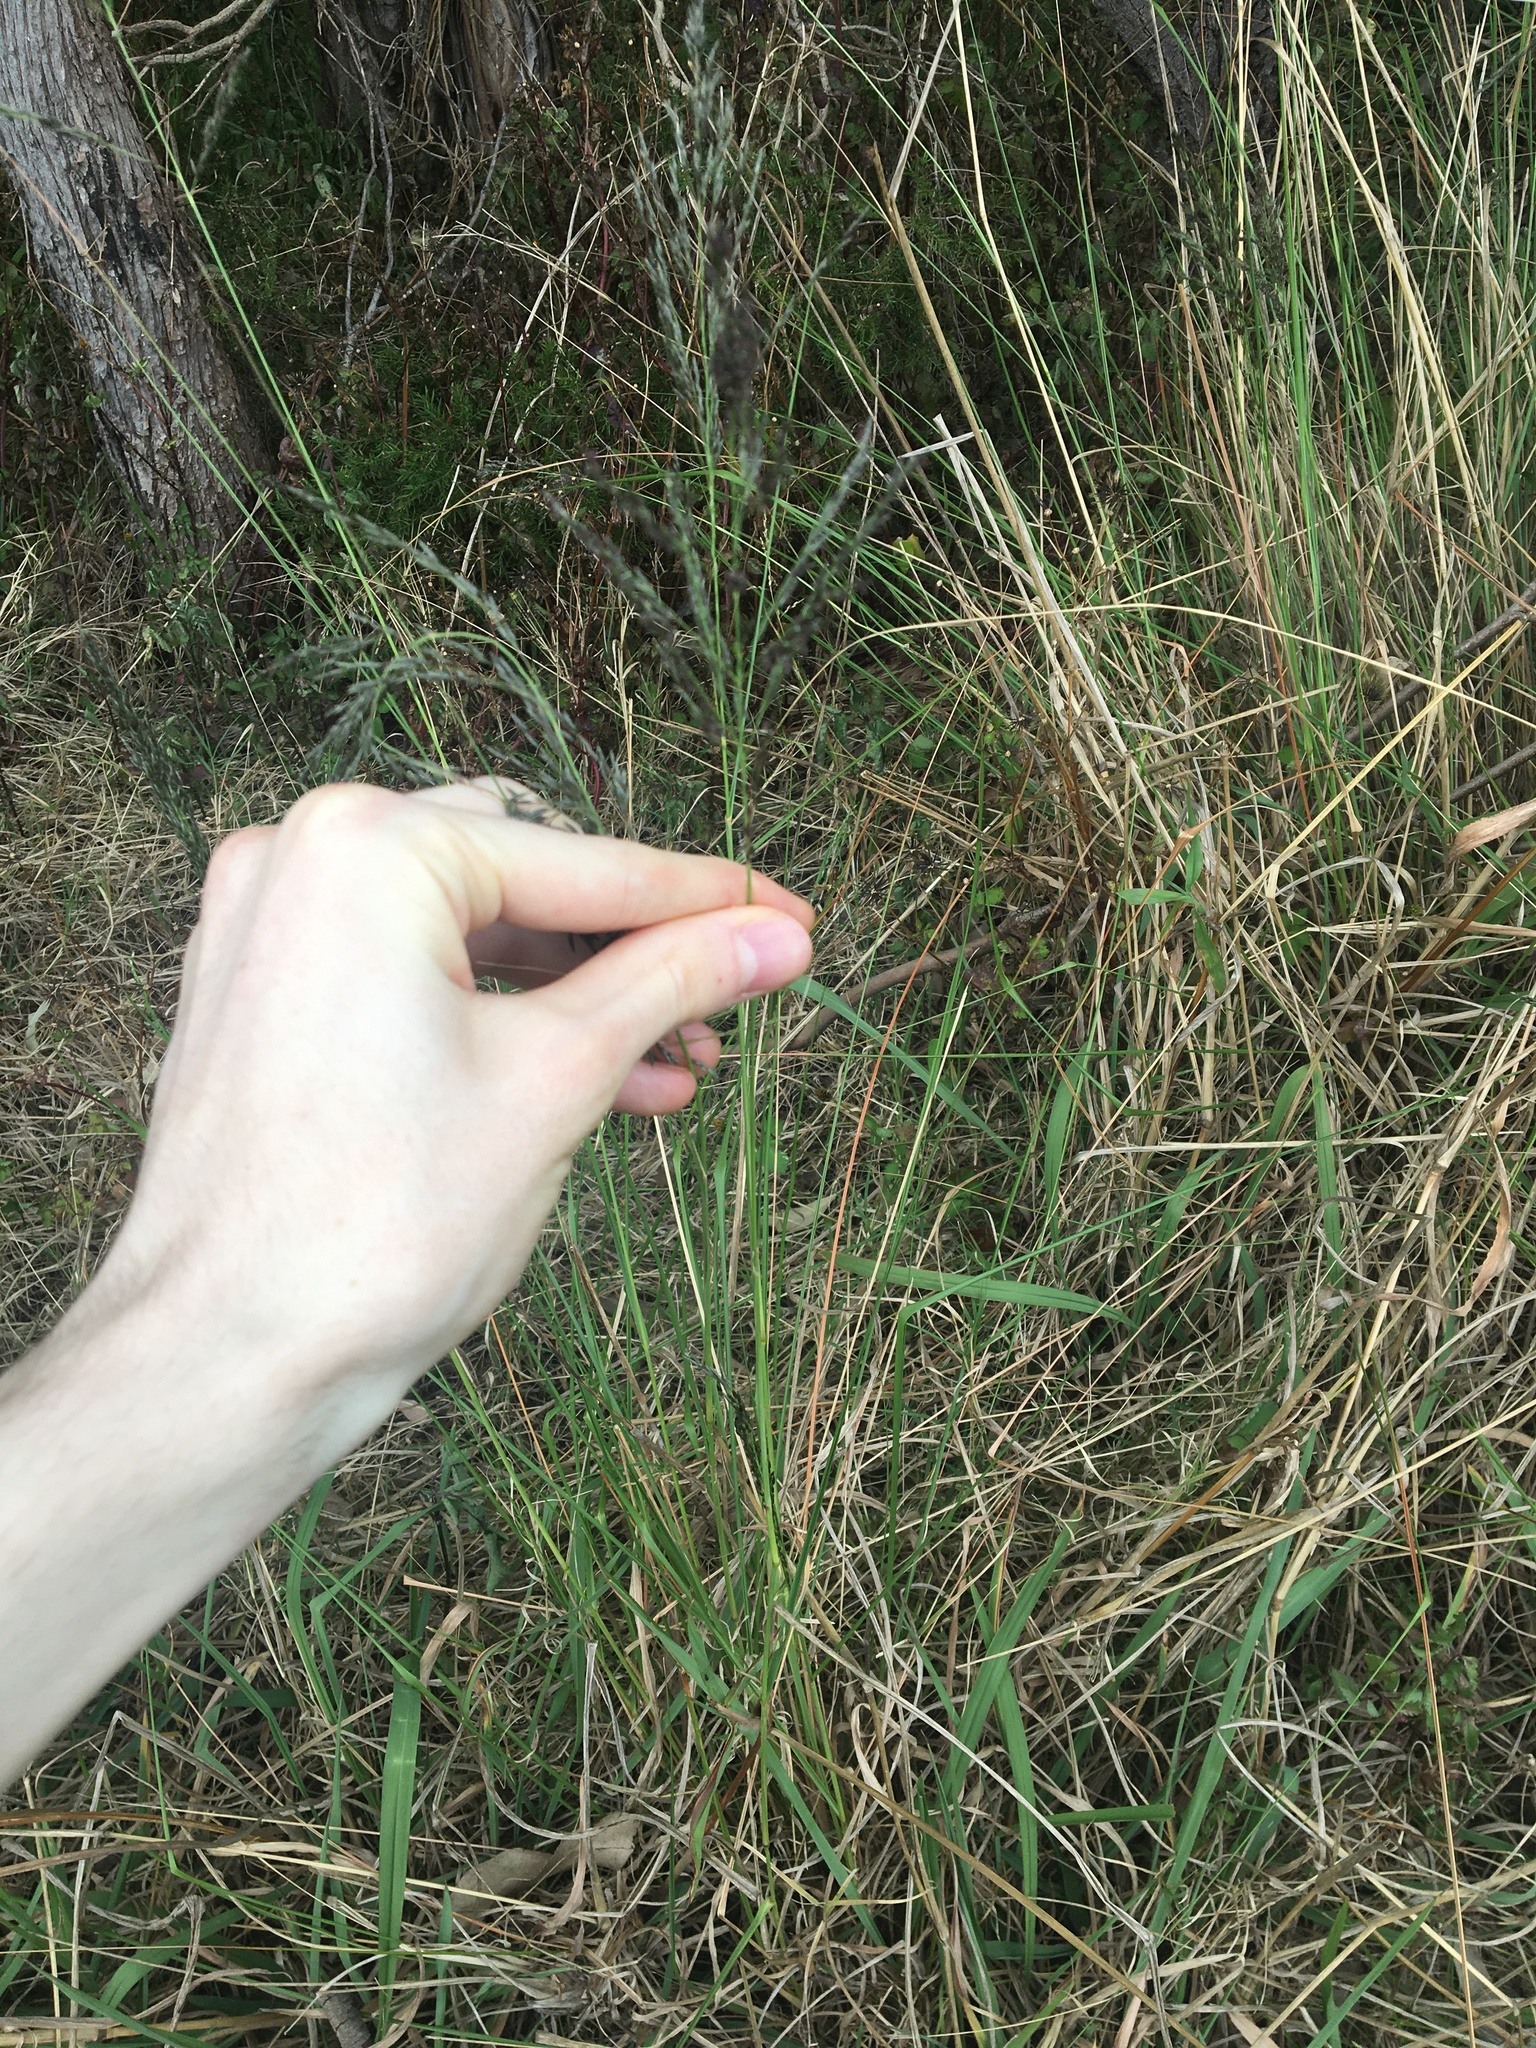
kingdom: Plantae
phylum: Tracheophyta
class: Liliopsida
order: Poales
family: Poaceae
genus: Eragrostis
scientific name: Eragrostis curvula
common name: African love-grass
